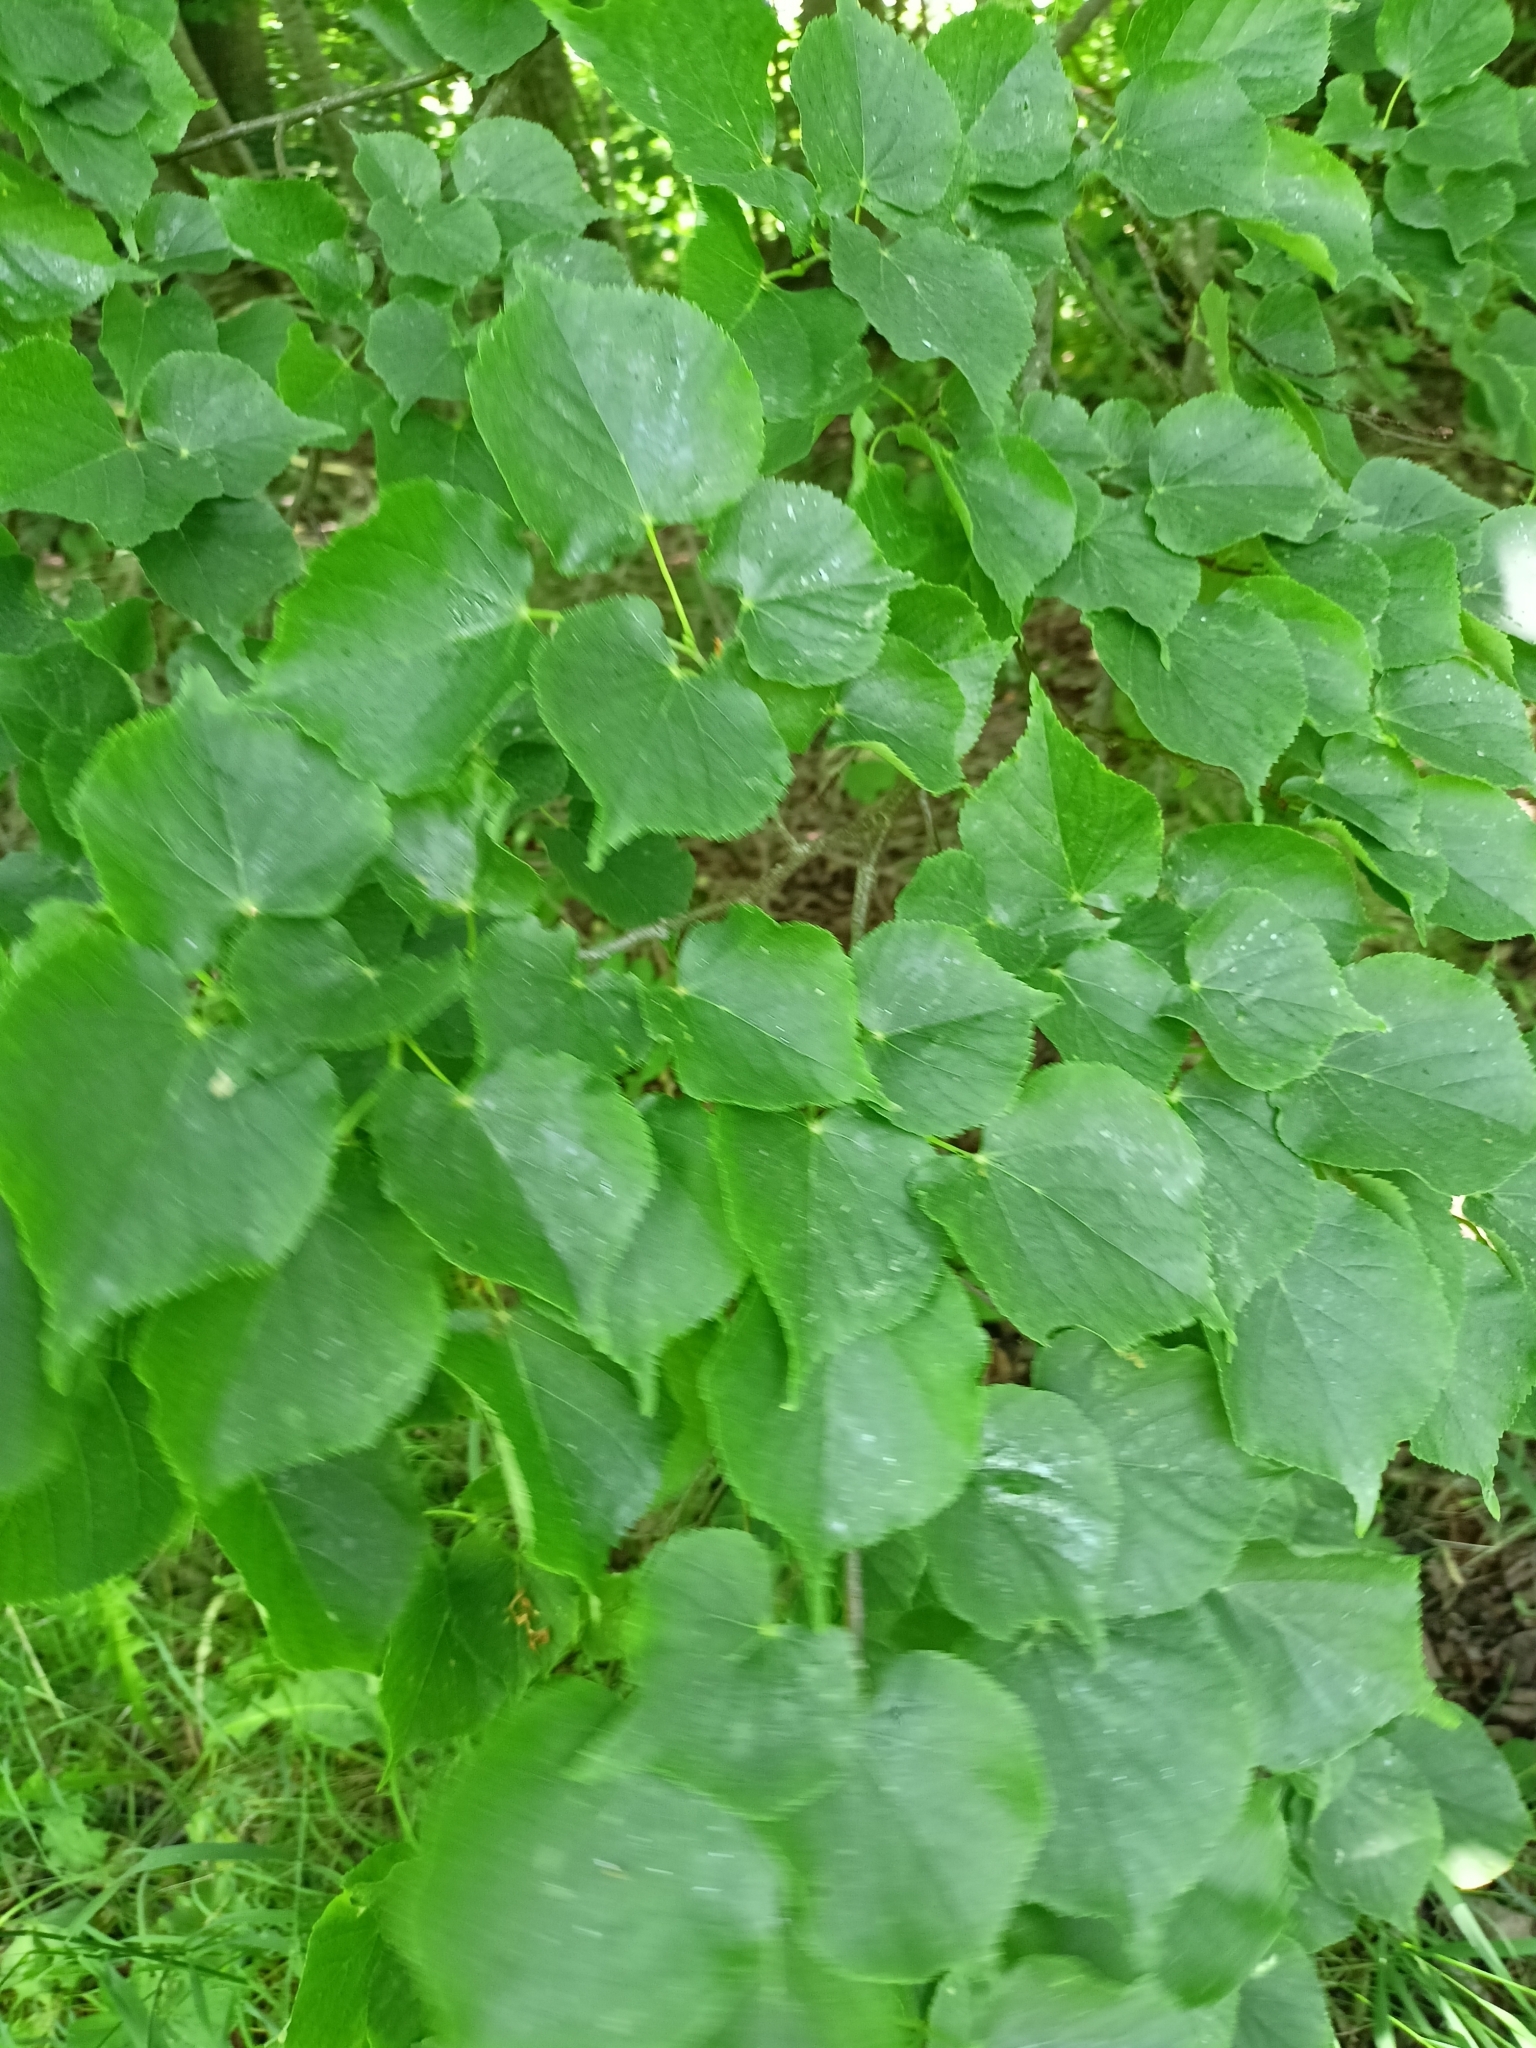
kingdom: Plantae
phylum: Tracheophyta
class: Magnoliopsida
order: Malvales
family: Malvaceae
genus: Tilia
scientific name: Tilia cordata
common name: Small-leaved lime
